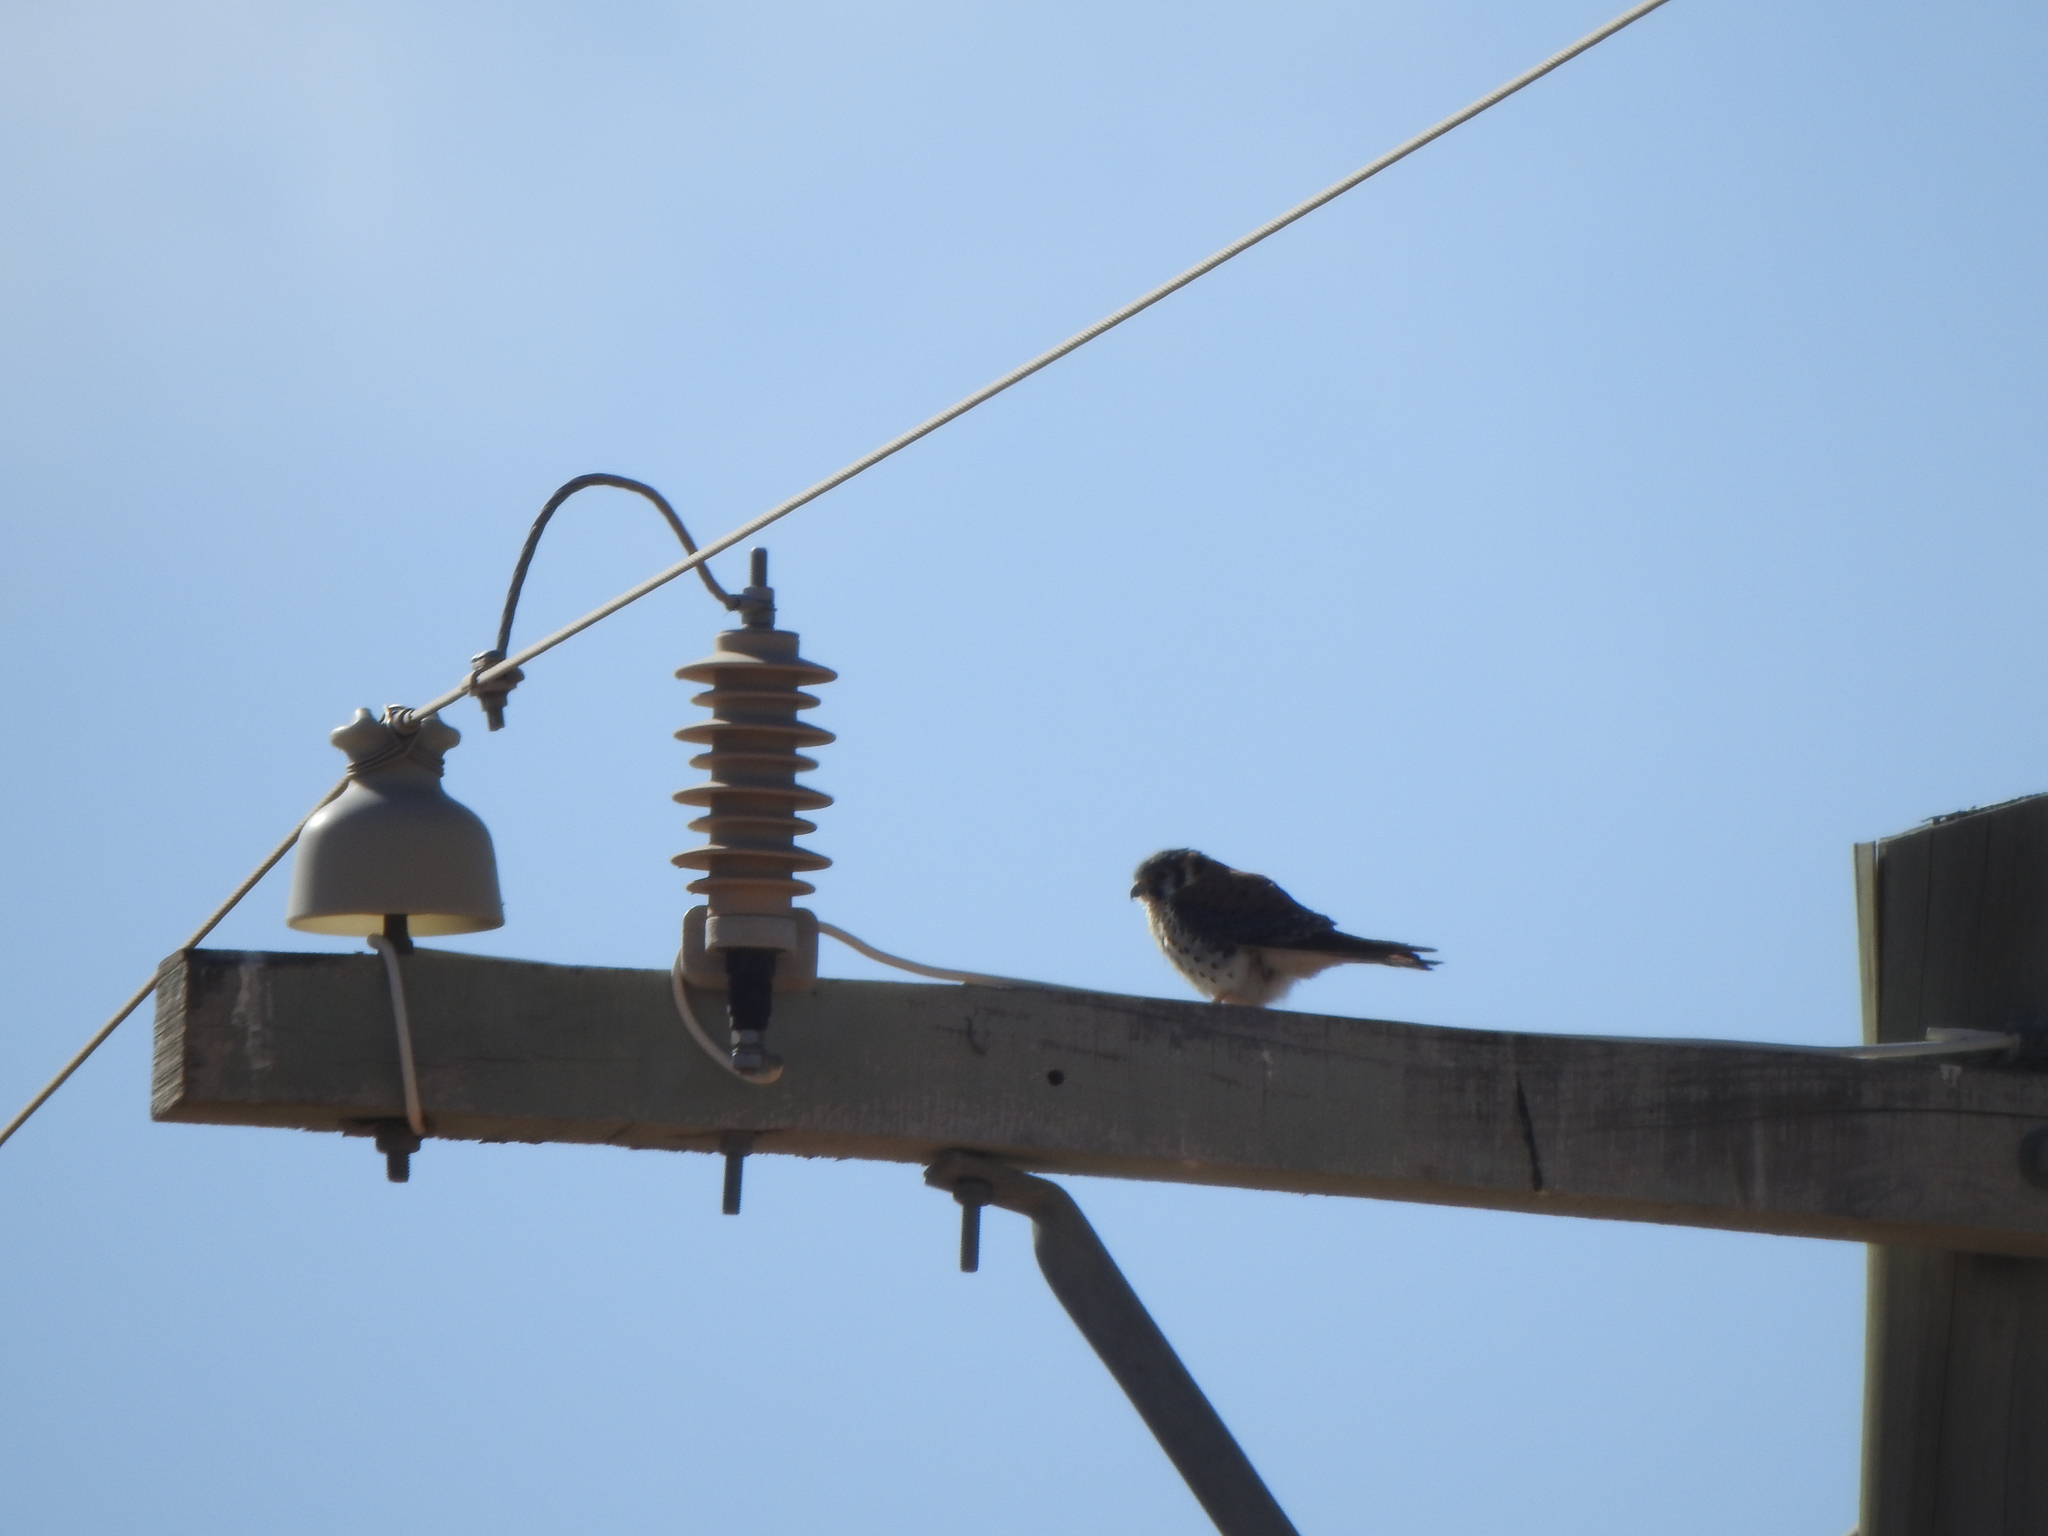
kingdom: Animalia
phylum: Chordata
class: Aves
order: Falconiformes
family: Falconidae
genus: Falco
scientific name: Falco sparverius
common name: American kestrel
